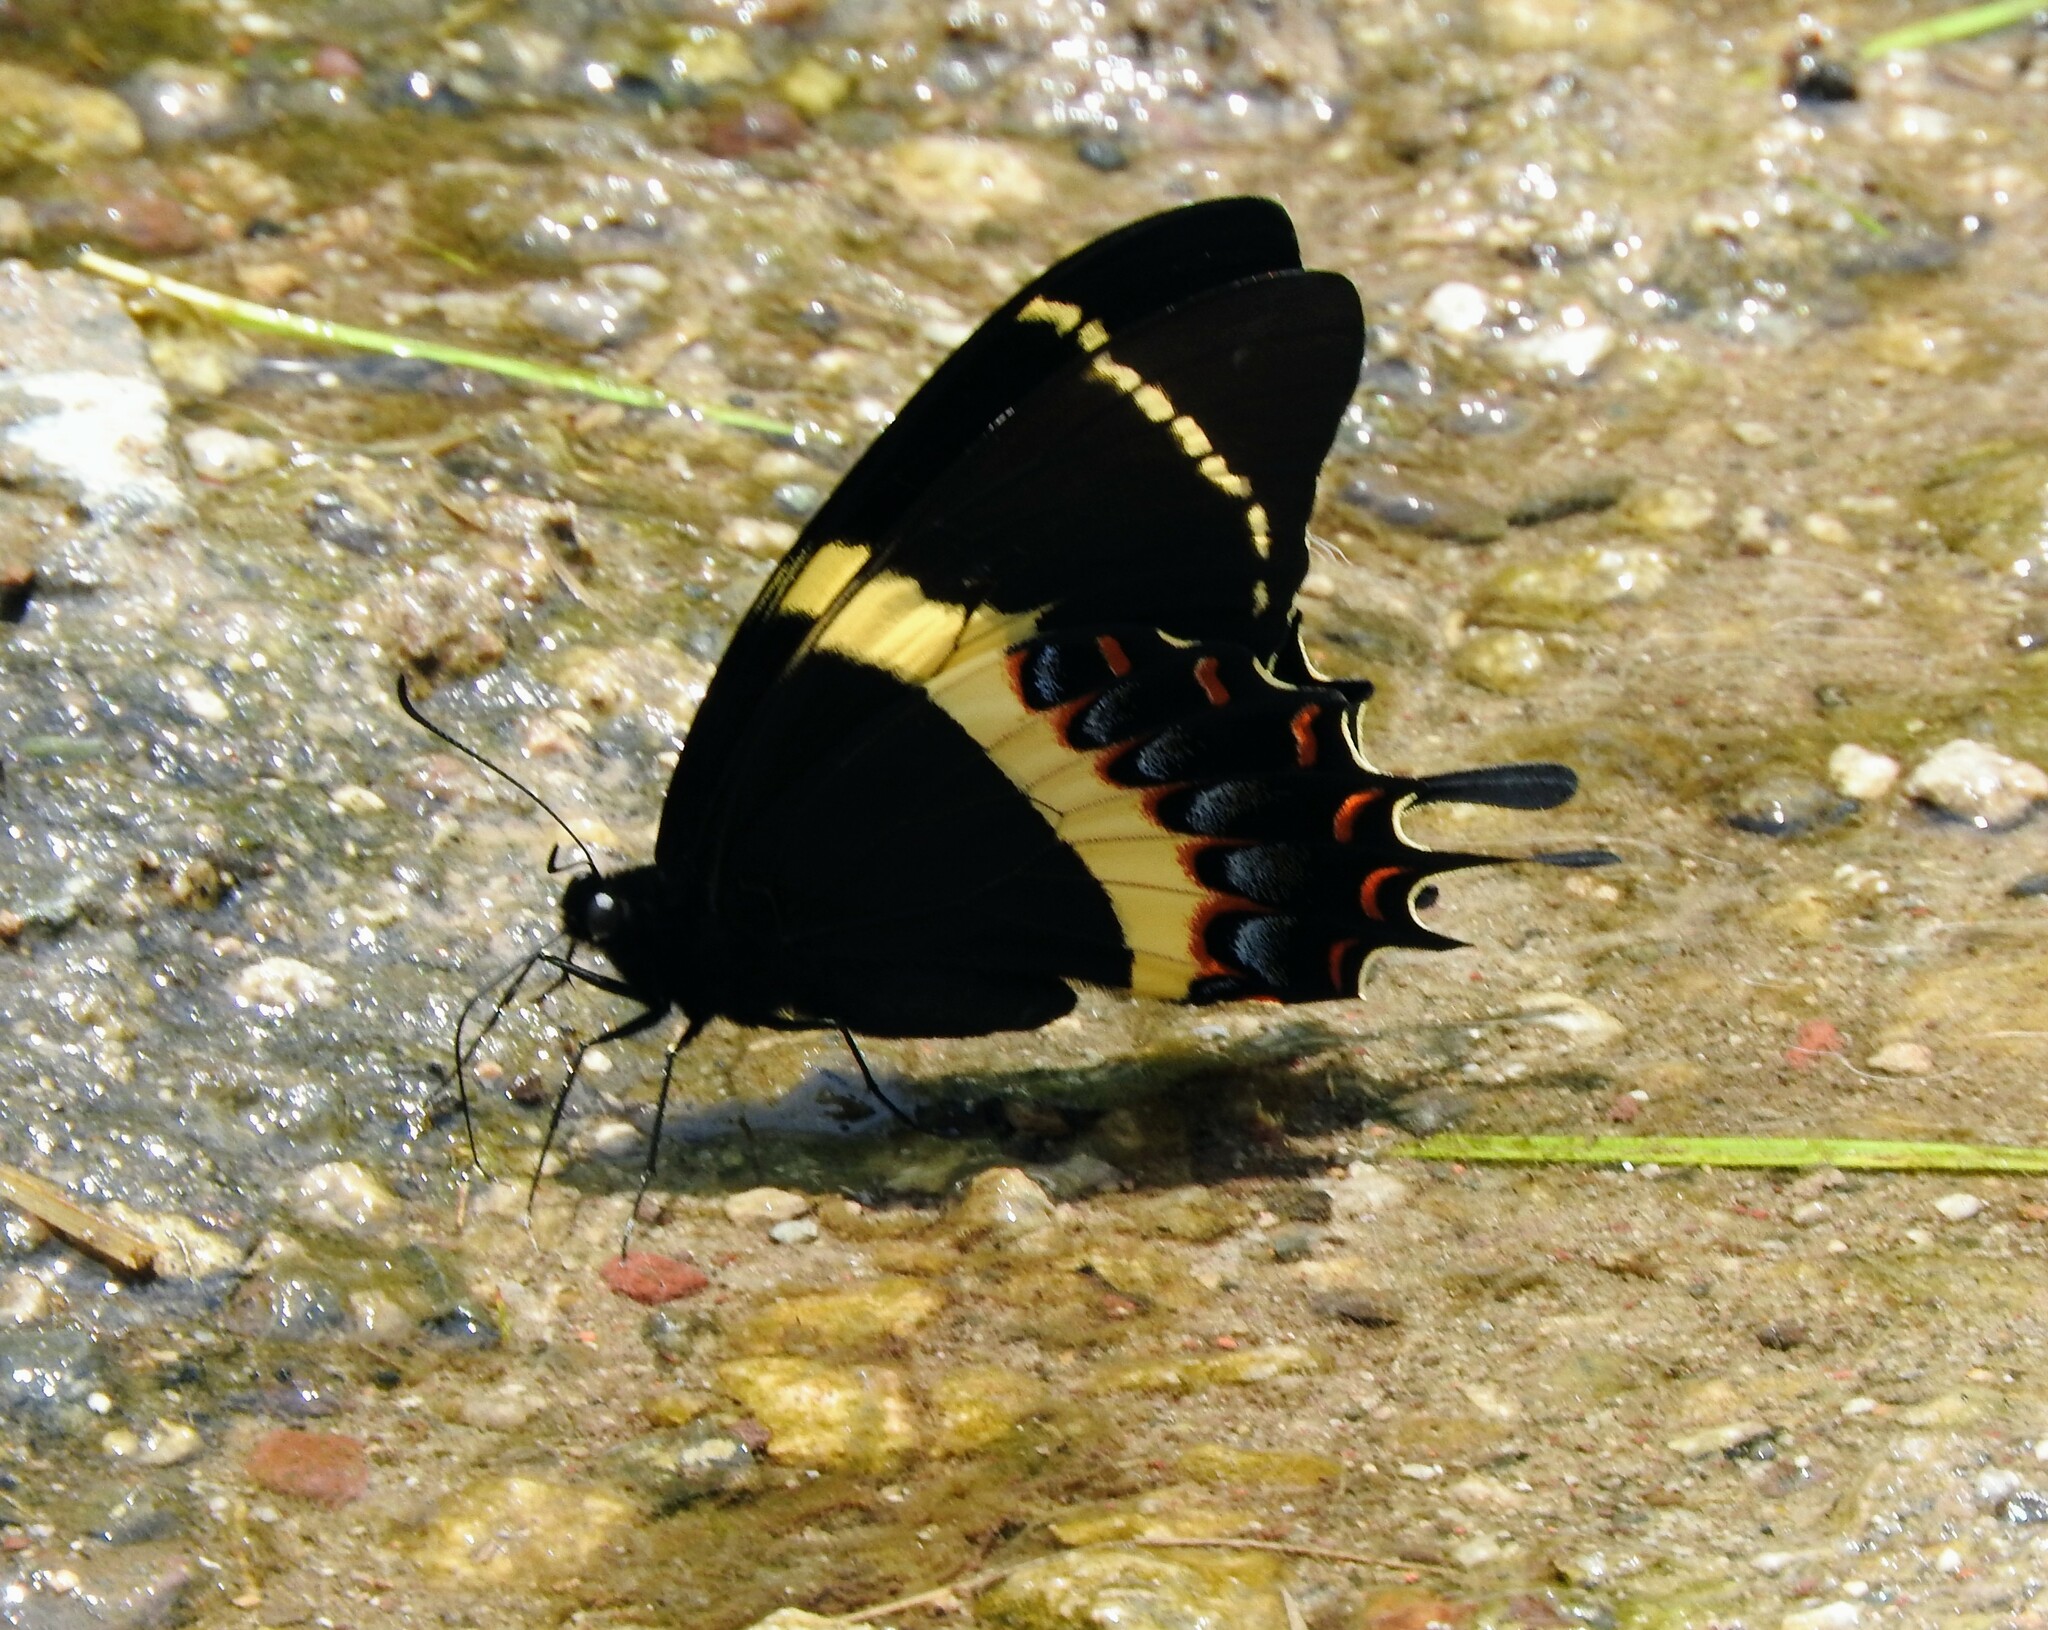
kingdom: Animalia
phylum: Arthropoda
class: Insecta
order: Lepidoptera
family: Papilionidae
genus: Papilio
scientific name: Papilio garamas
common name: Magnificent swallowtail
